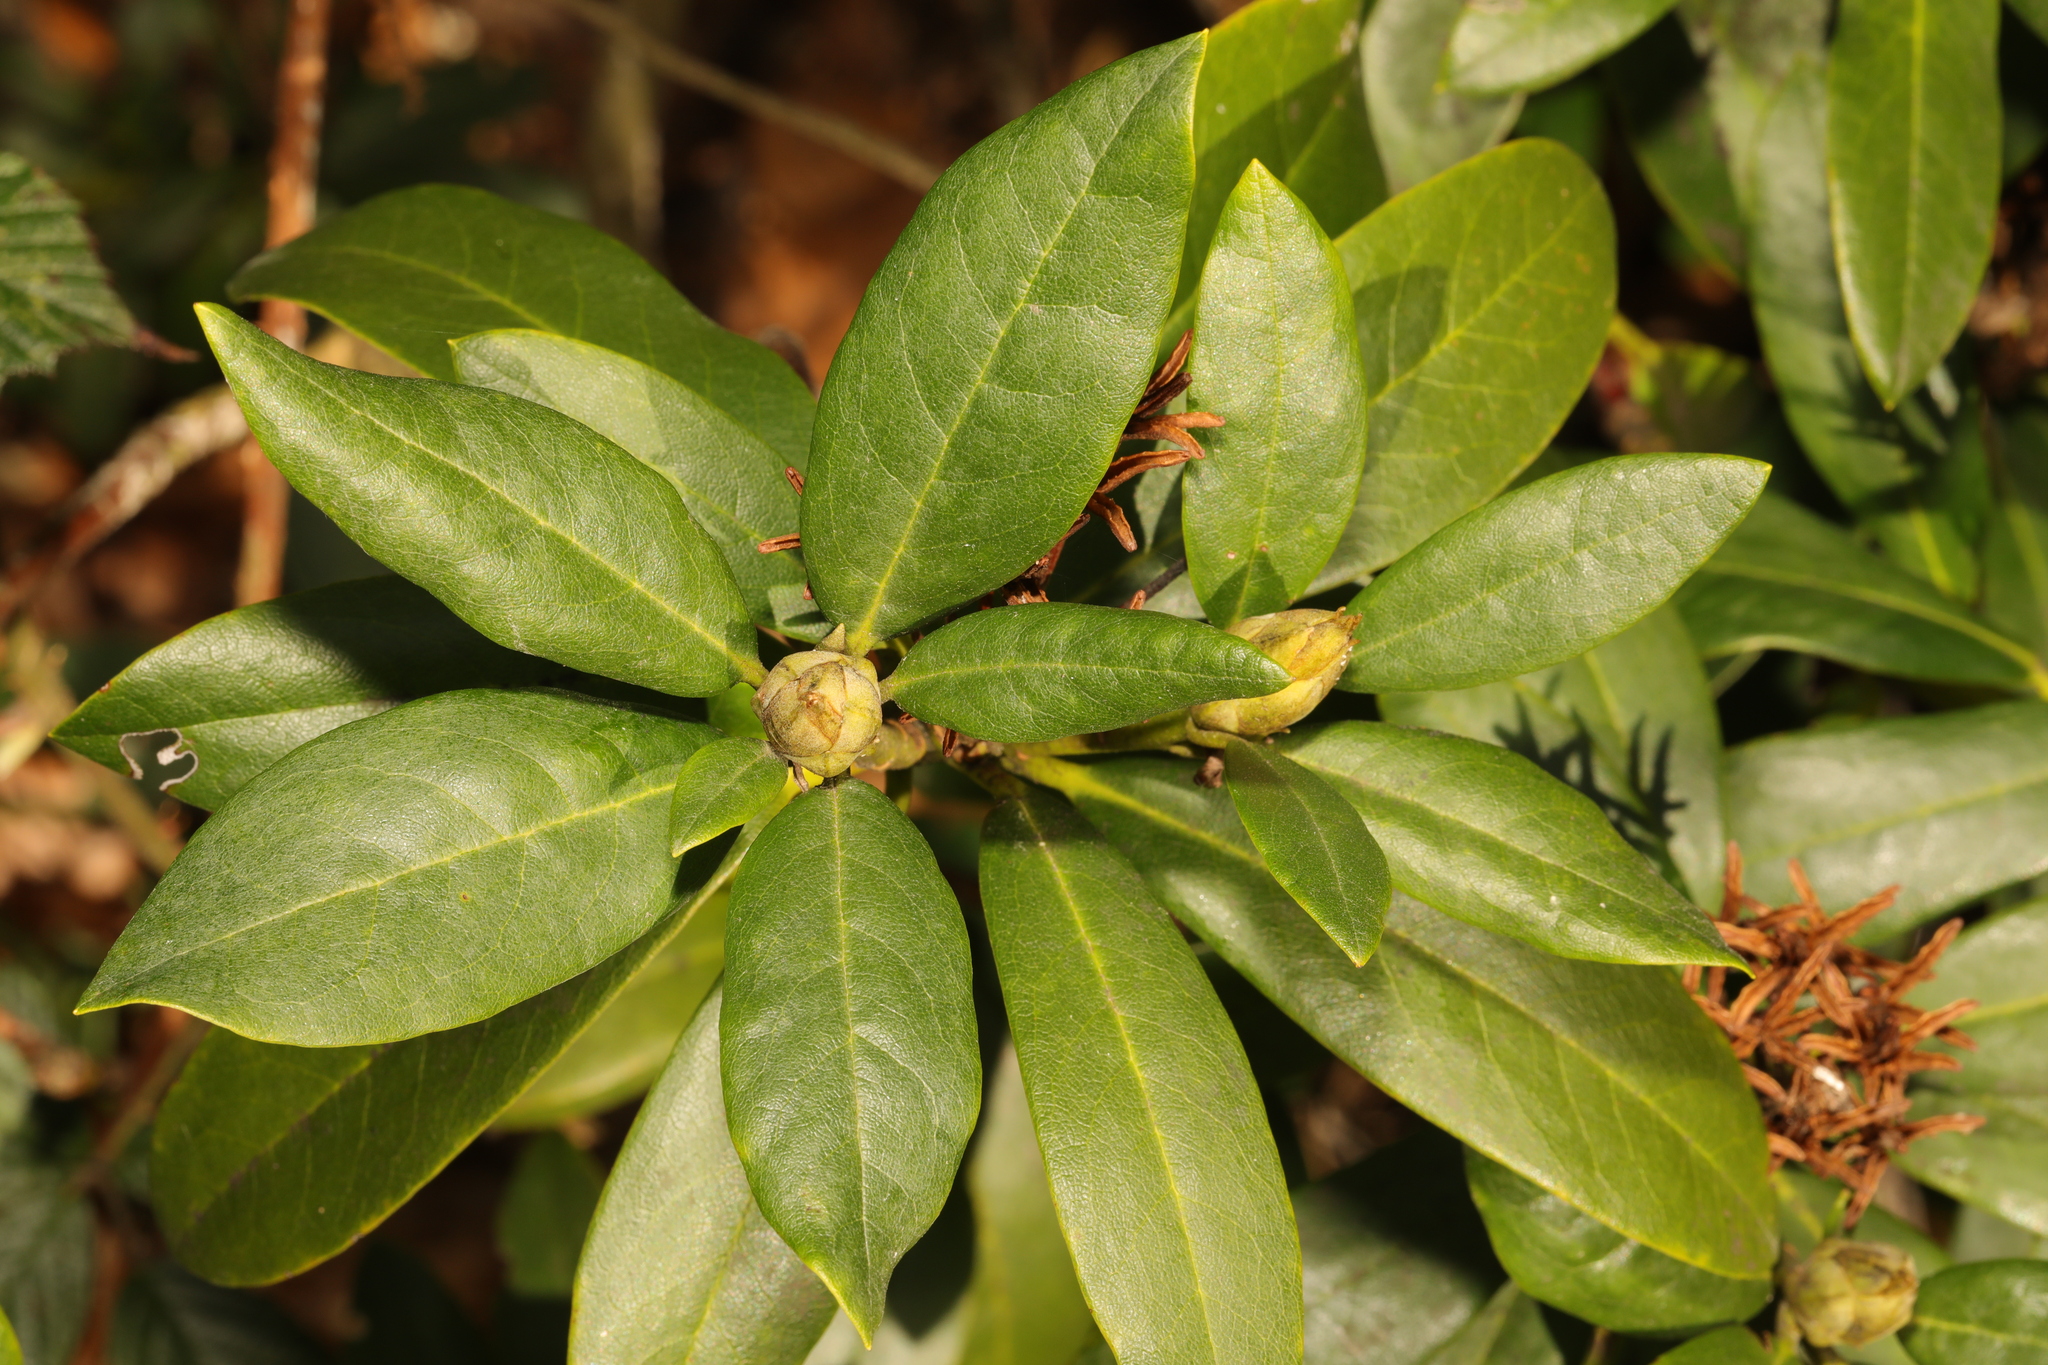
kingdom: Plantae
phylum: Tracheophyta
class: Magnoliopsida
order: Ericales
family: Ericaceae
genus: Rhododendron
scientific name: Rhododendron ponticum
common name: Rhododendron
